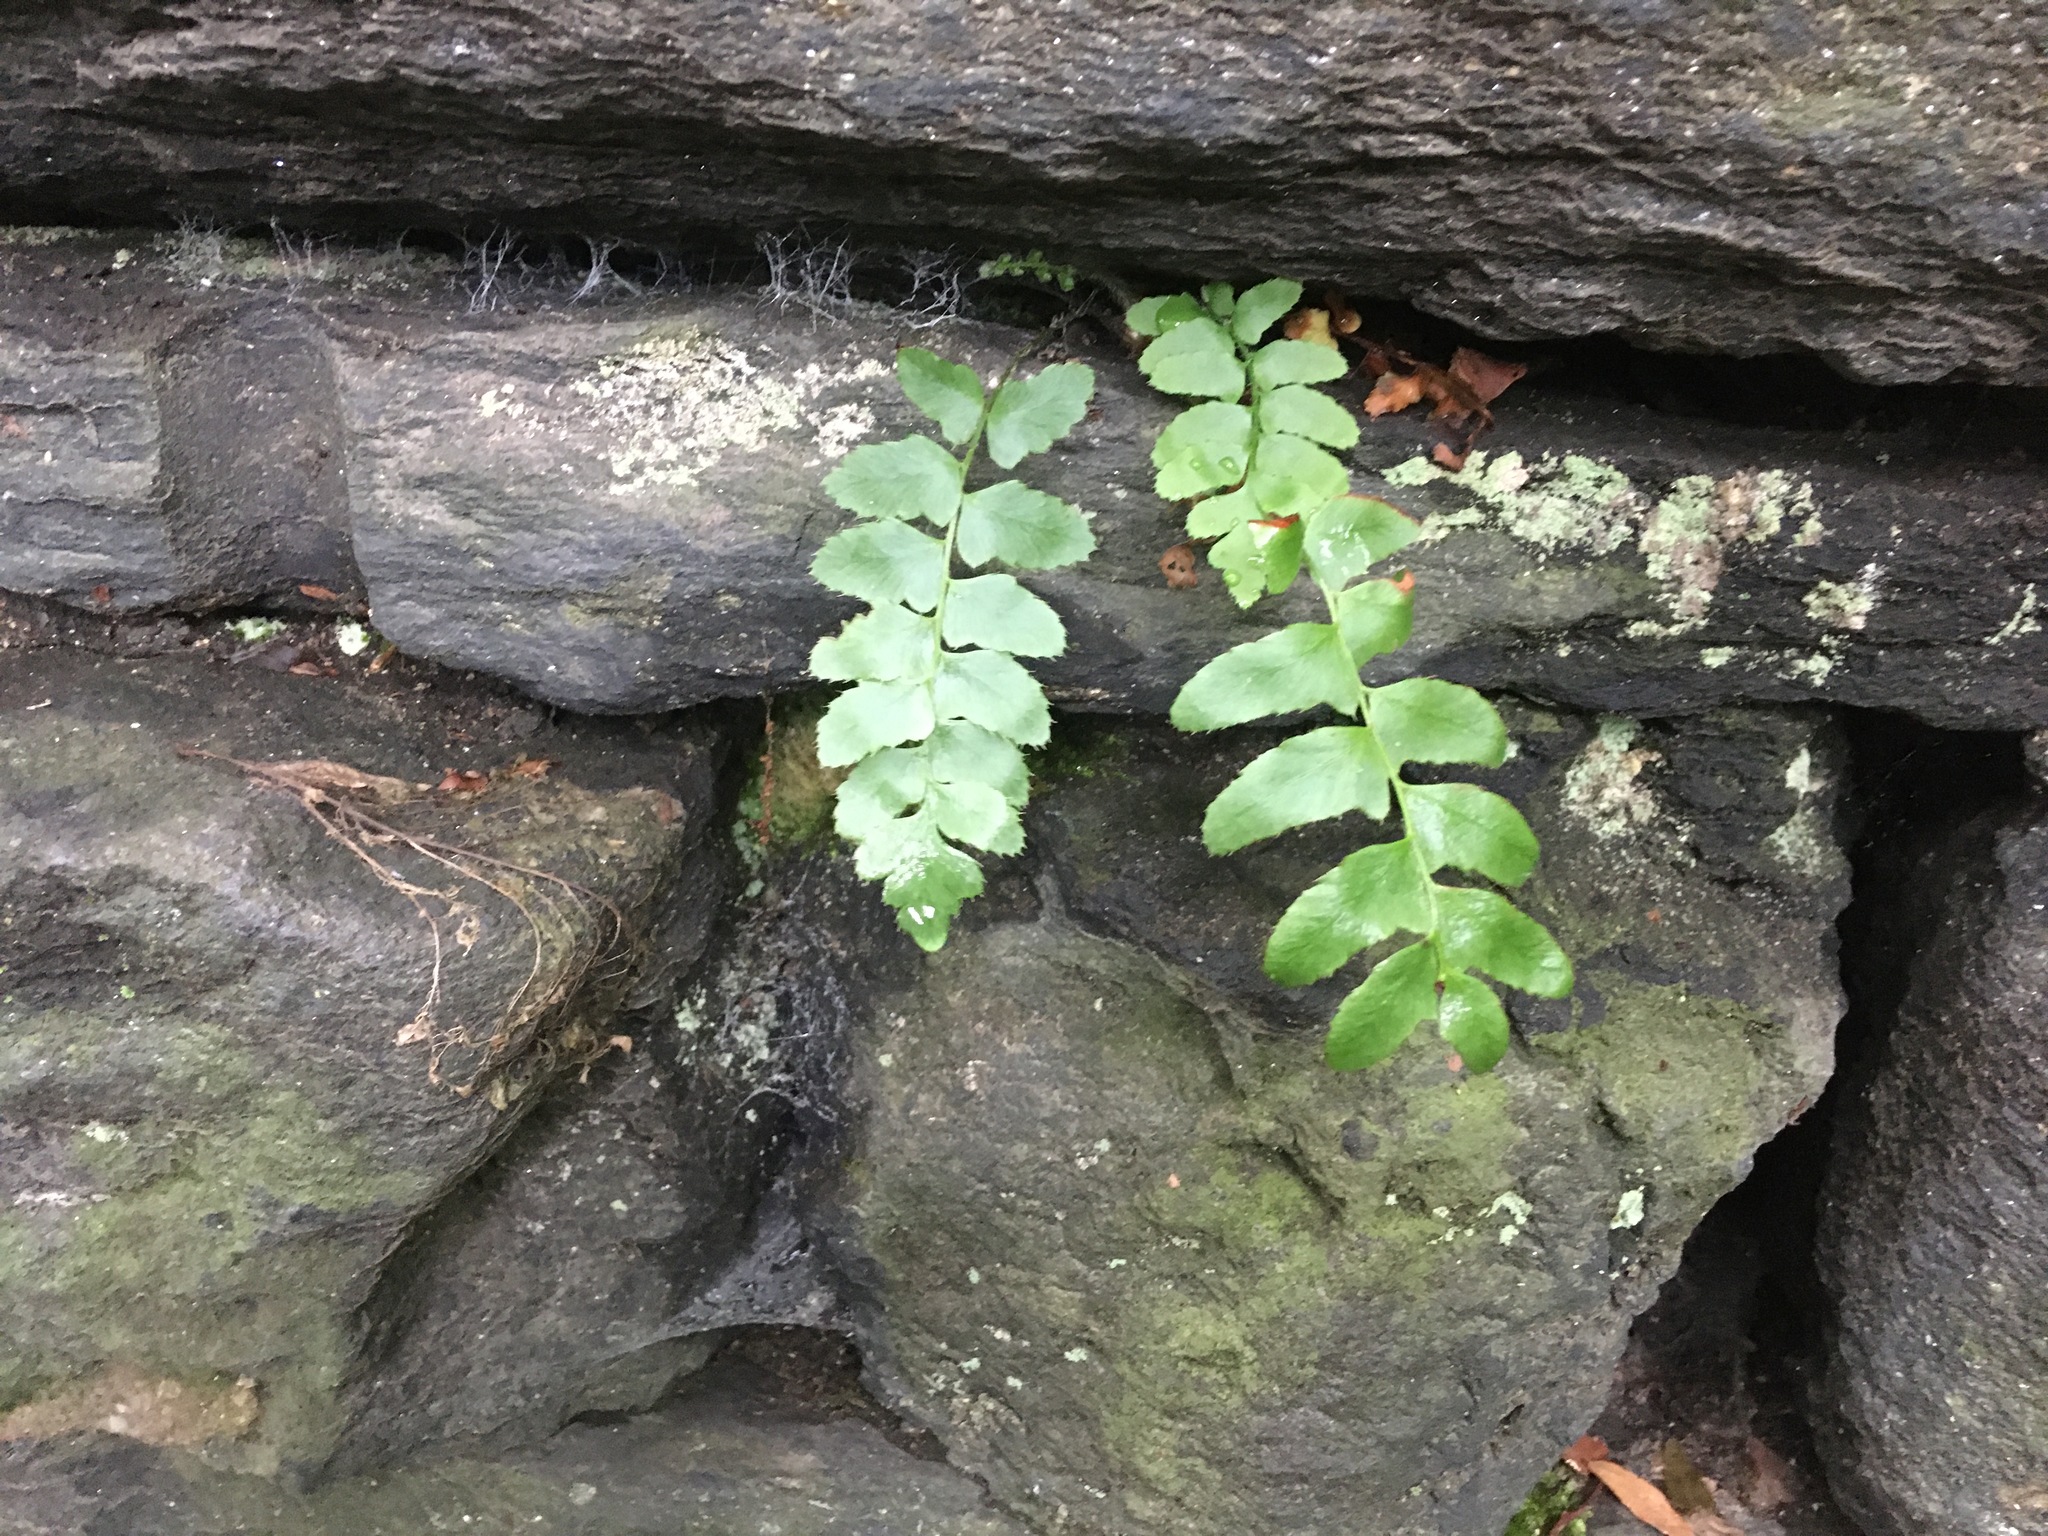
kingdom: Plantae
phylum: Tracheophyta
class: Polypodiopsida
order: Polypodiales
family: Dryopteridaceae
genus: Polystichum
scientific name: Polystichum acrostichoides
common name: Christmas fern
